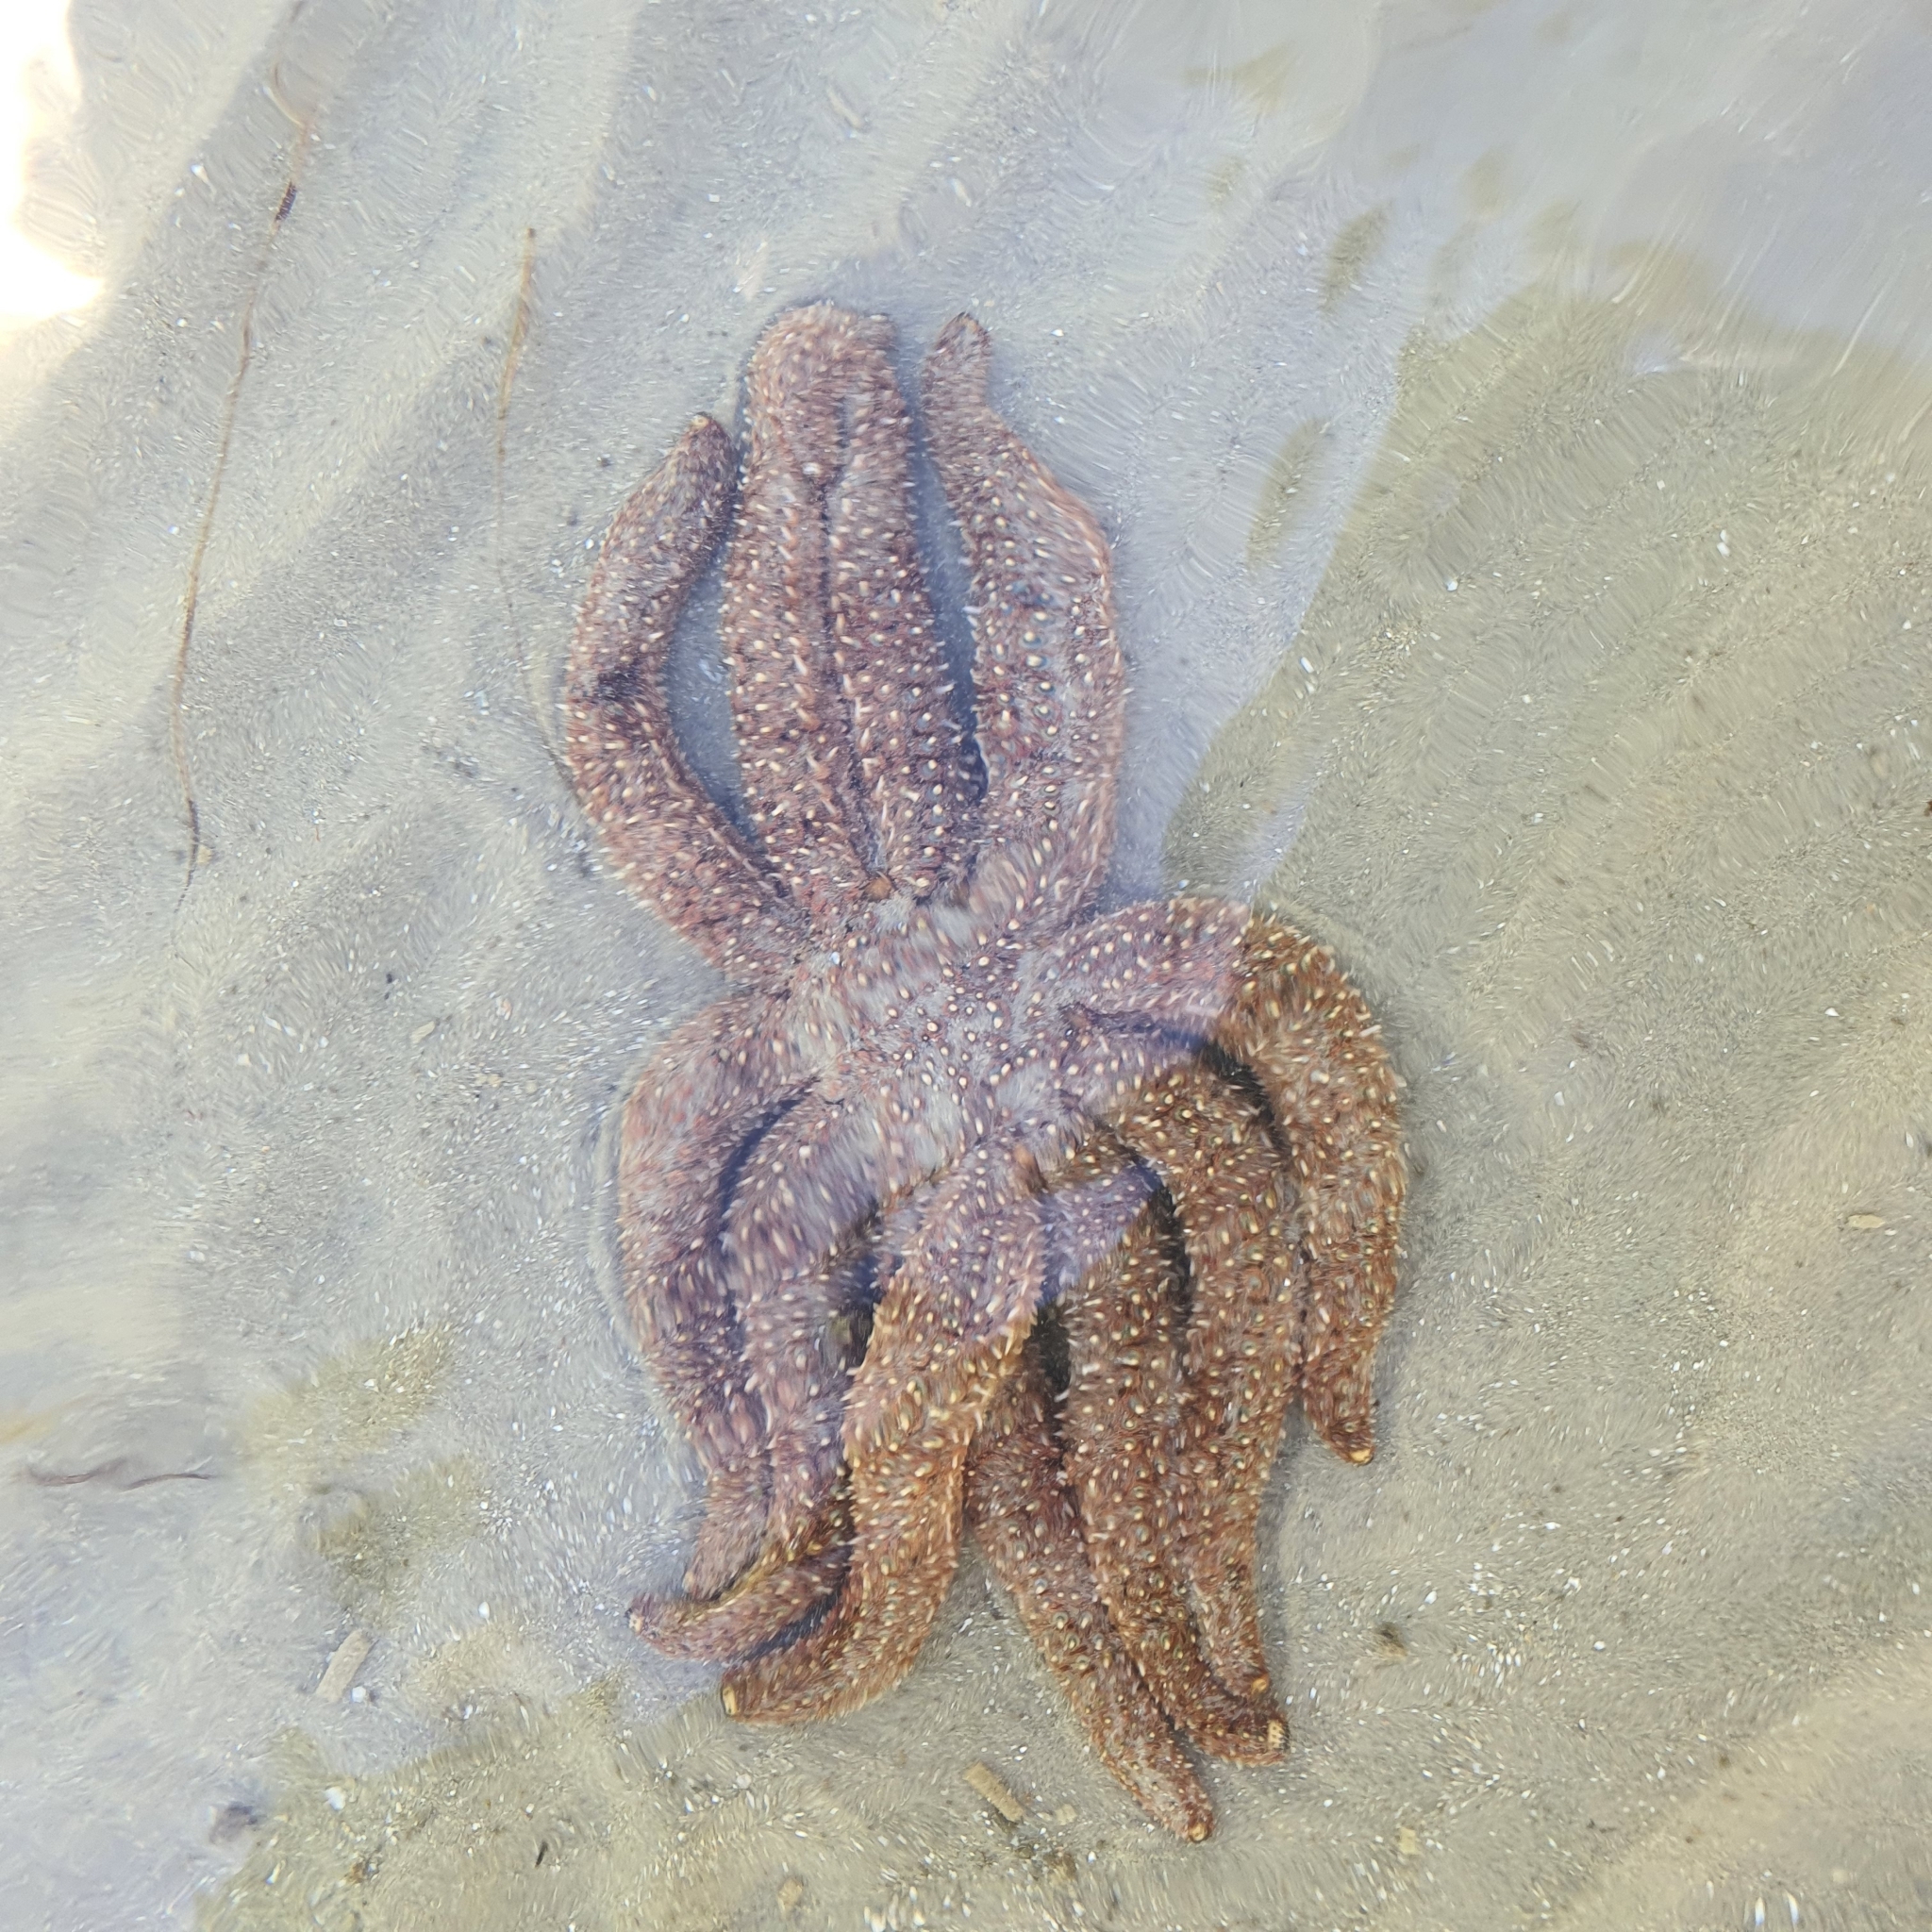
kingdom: Animalia
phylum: Echinodermata
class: Asteroidea
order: Forcipulatida
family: Asteriidae
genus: Coscinasterias
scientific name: Coscinasterias muricata
